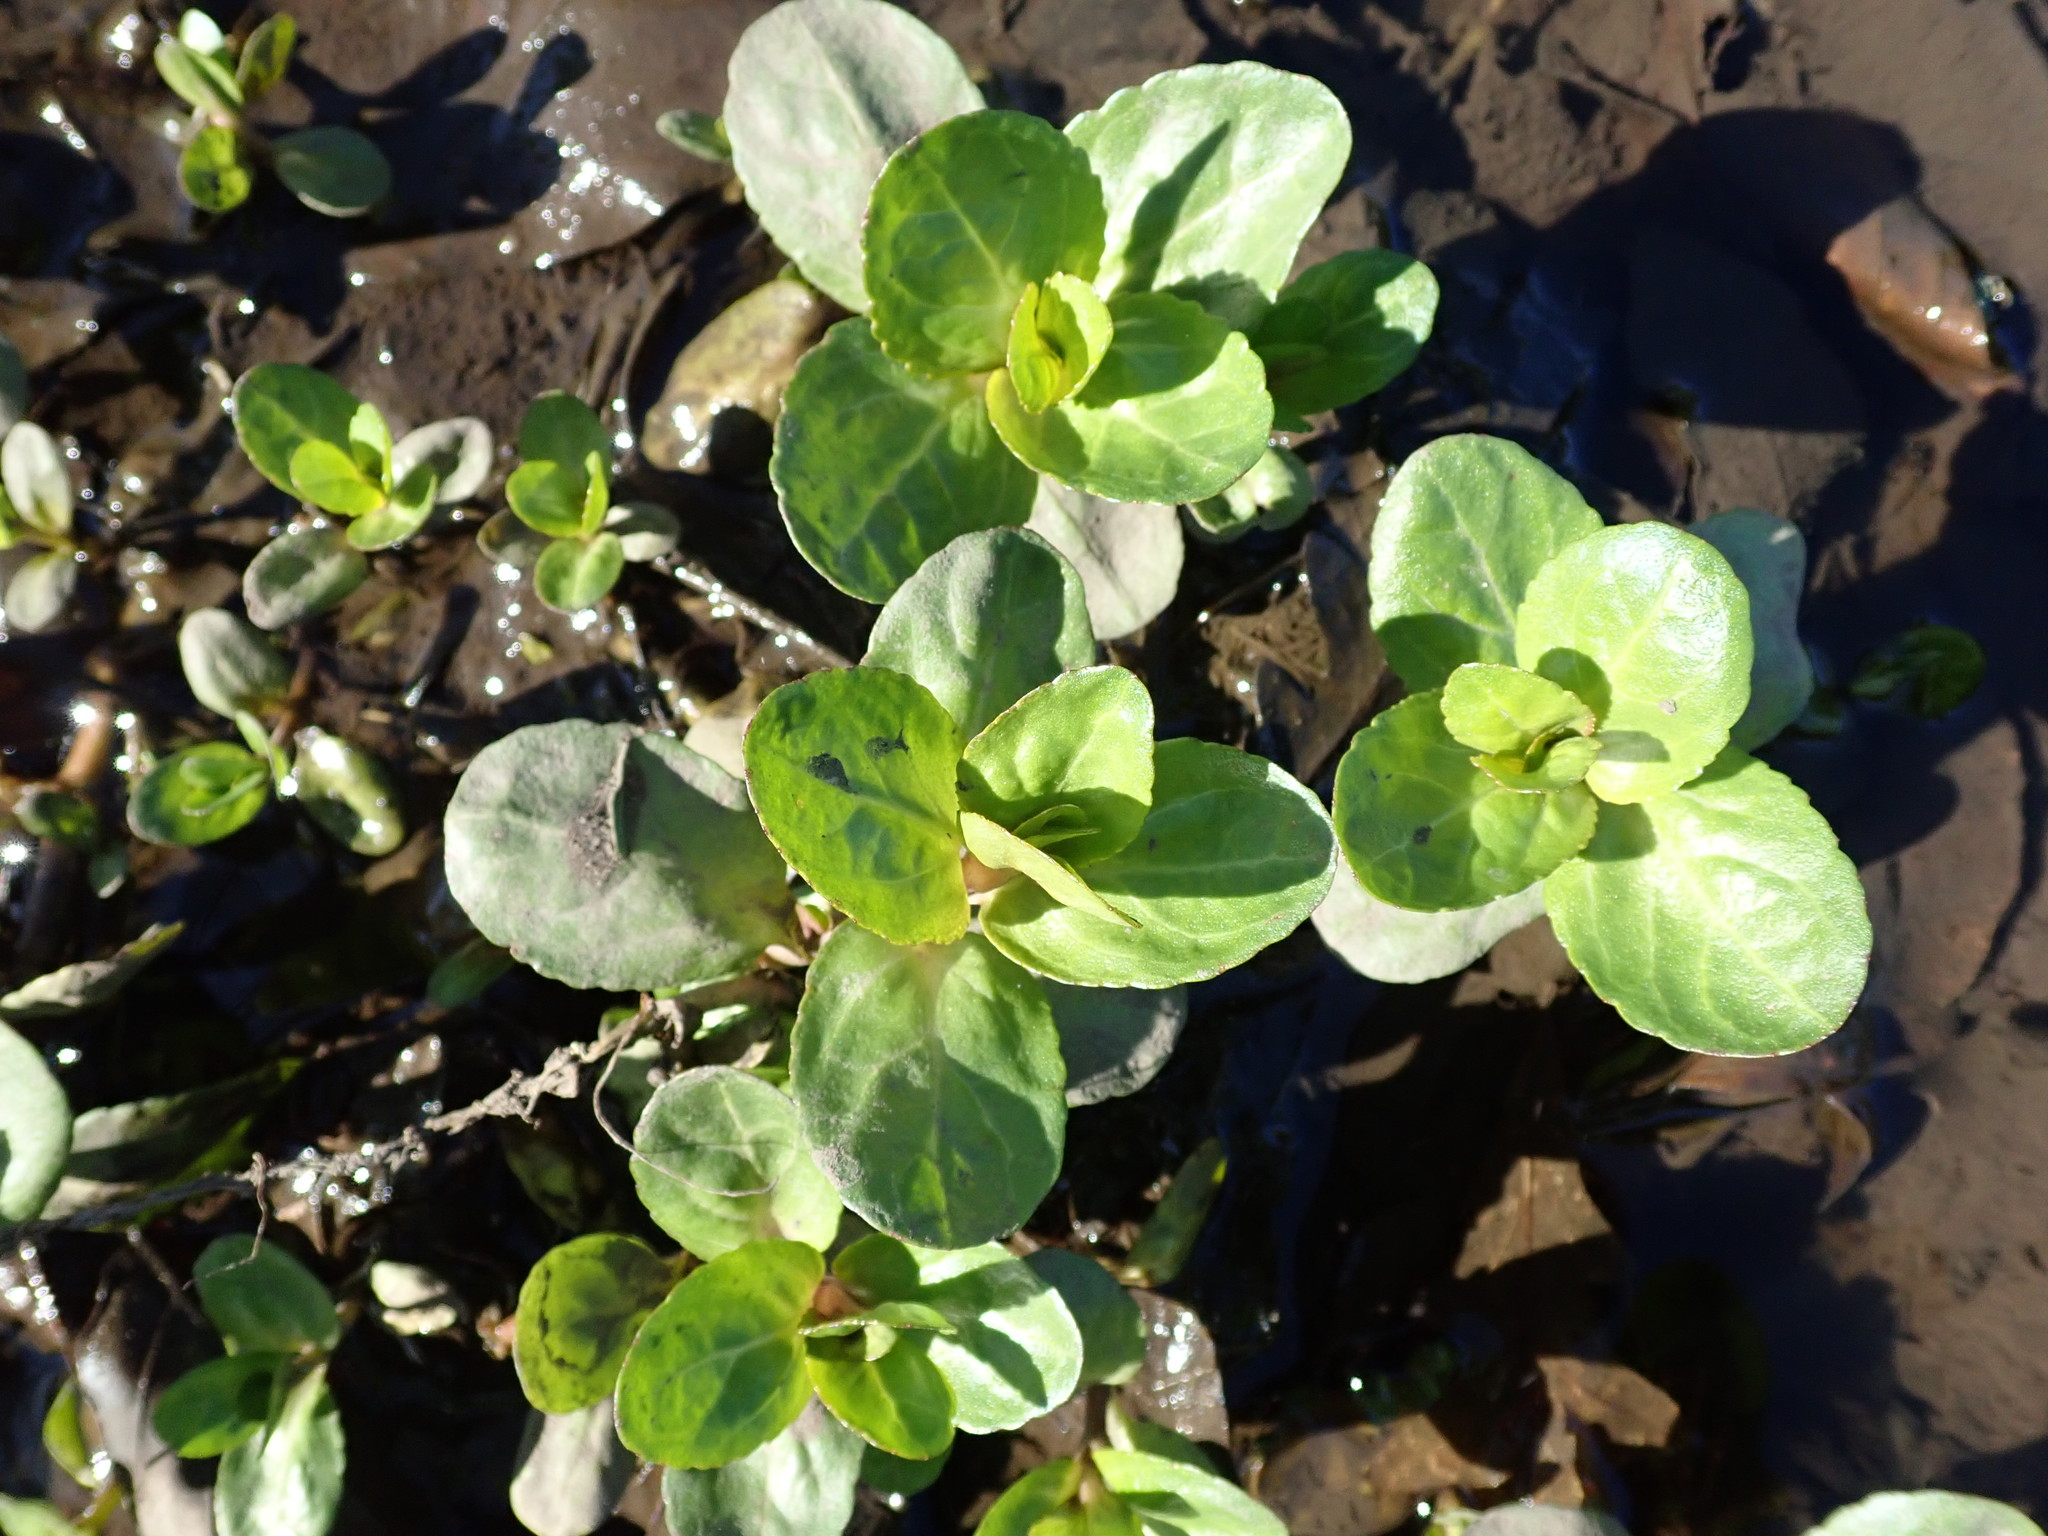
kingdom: Plantae
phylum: Tracheophyta
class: Magnoliopsida
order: Lamiales
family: Plantaginaceae
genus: Veronica
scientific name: Veronica beccabunga
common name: Brooklime
